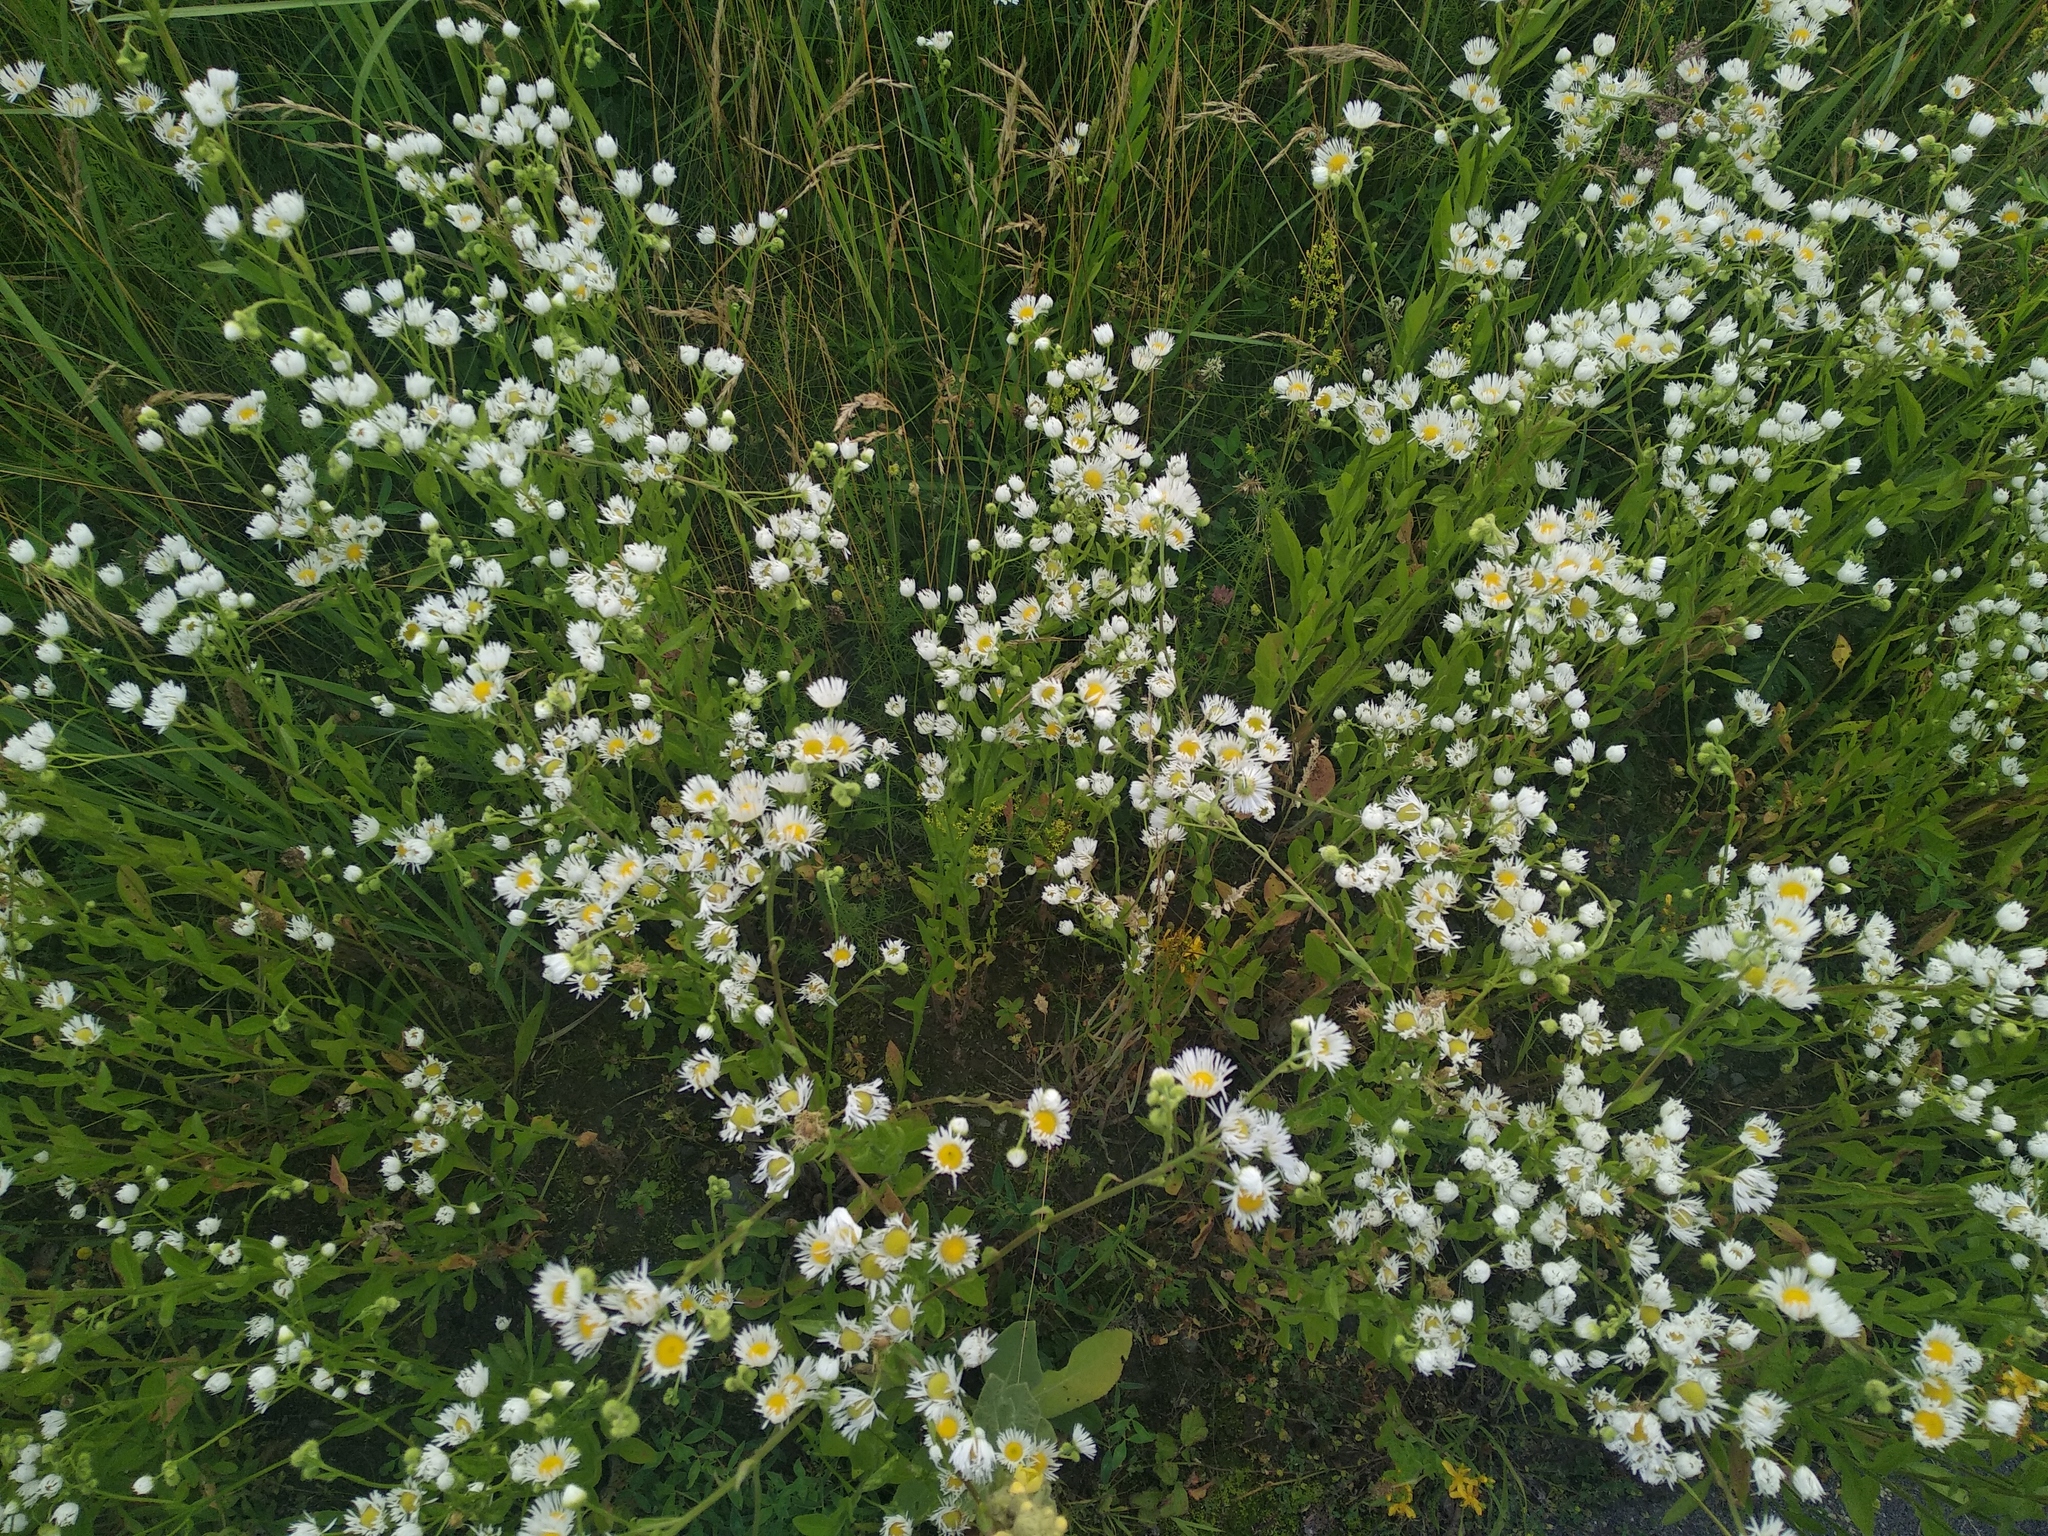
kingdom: Plantae
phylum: Tracheophyta
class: Magnoliopsida
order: Asterales
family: Asteraceae
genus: Erigeron
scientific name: Erigeron annuus
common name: Tall fleabane
